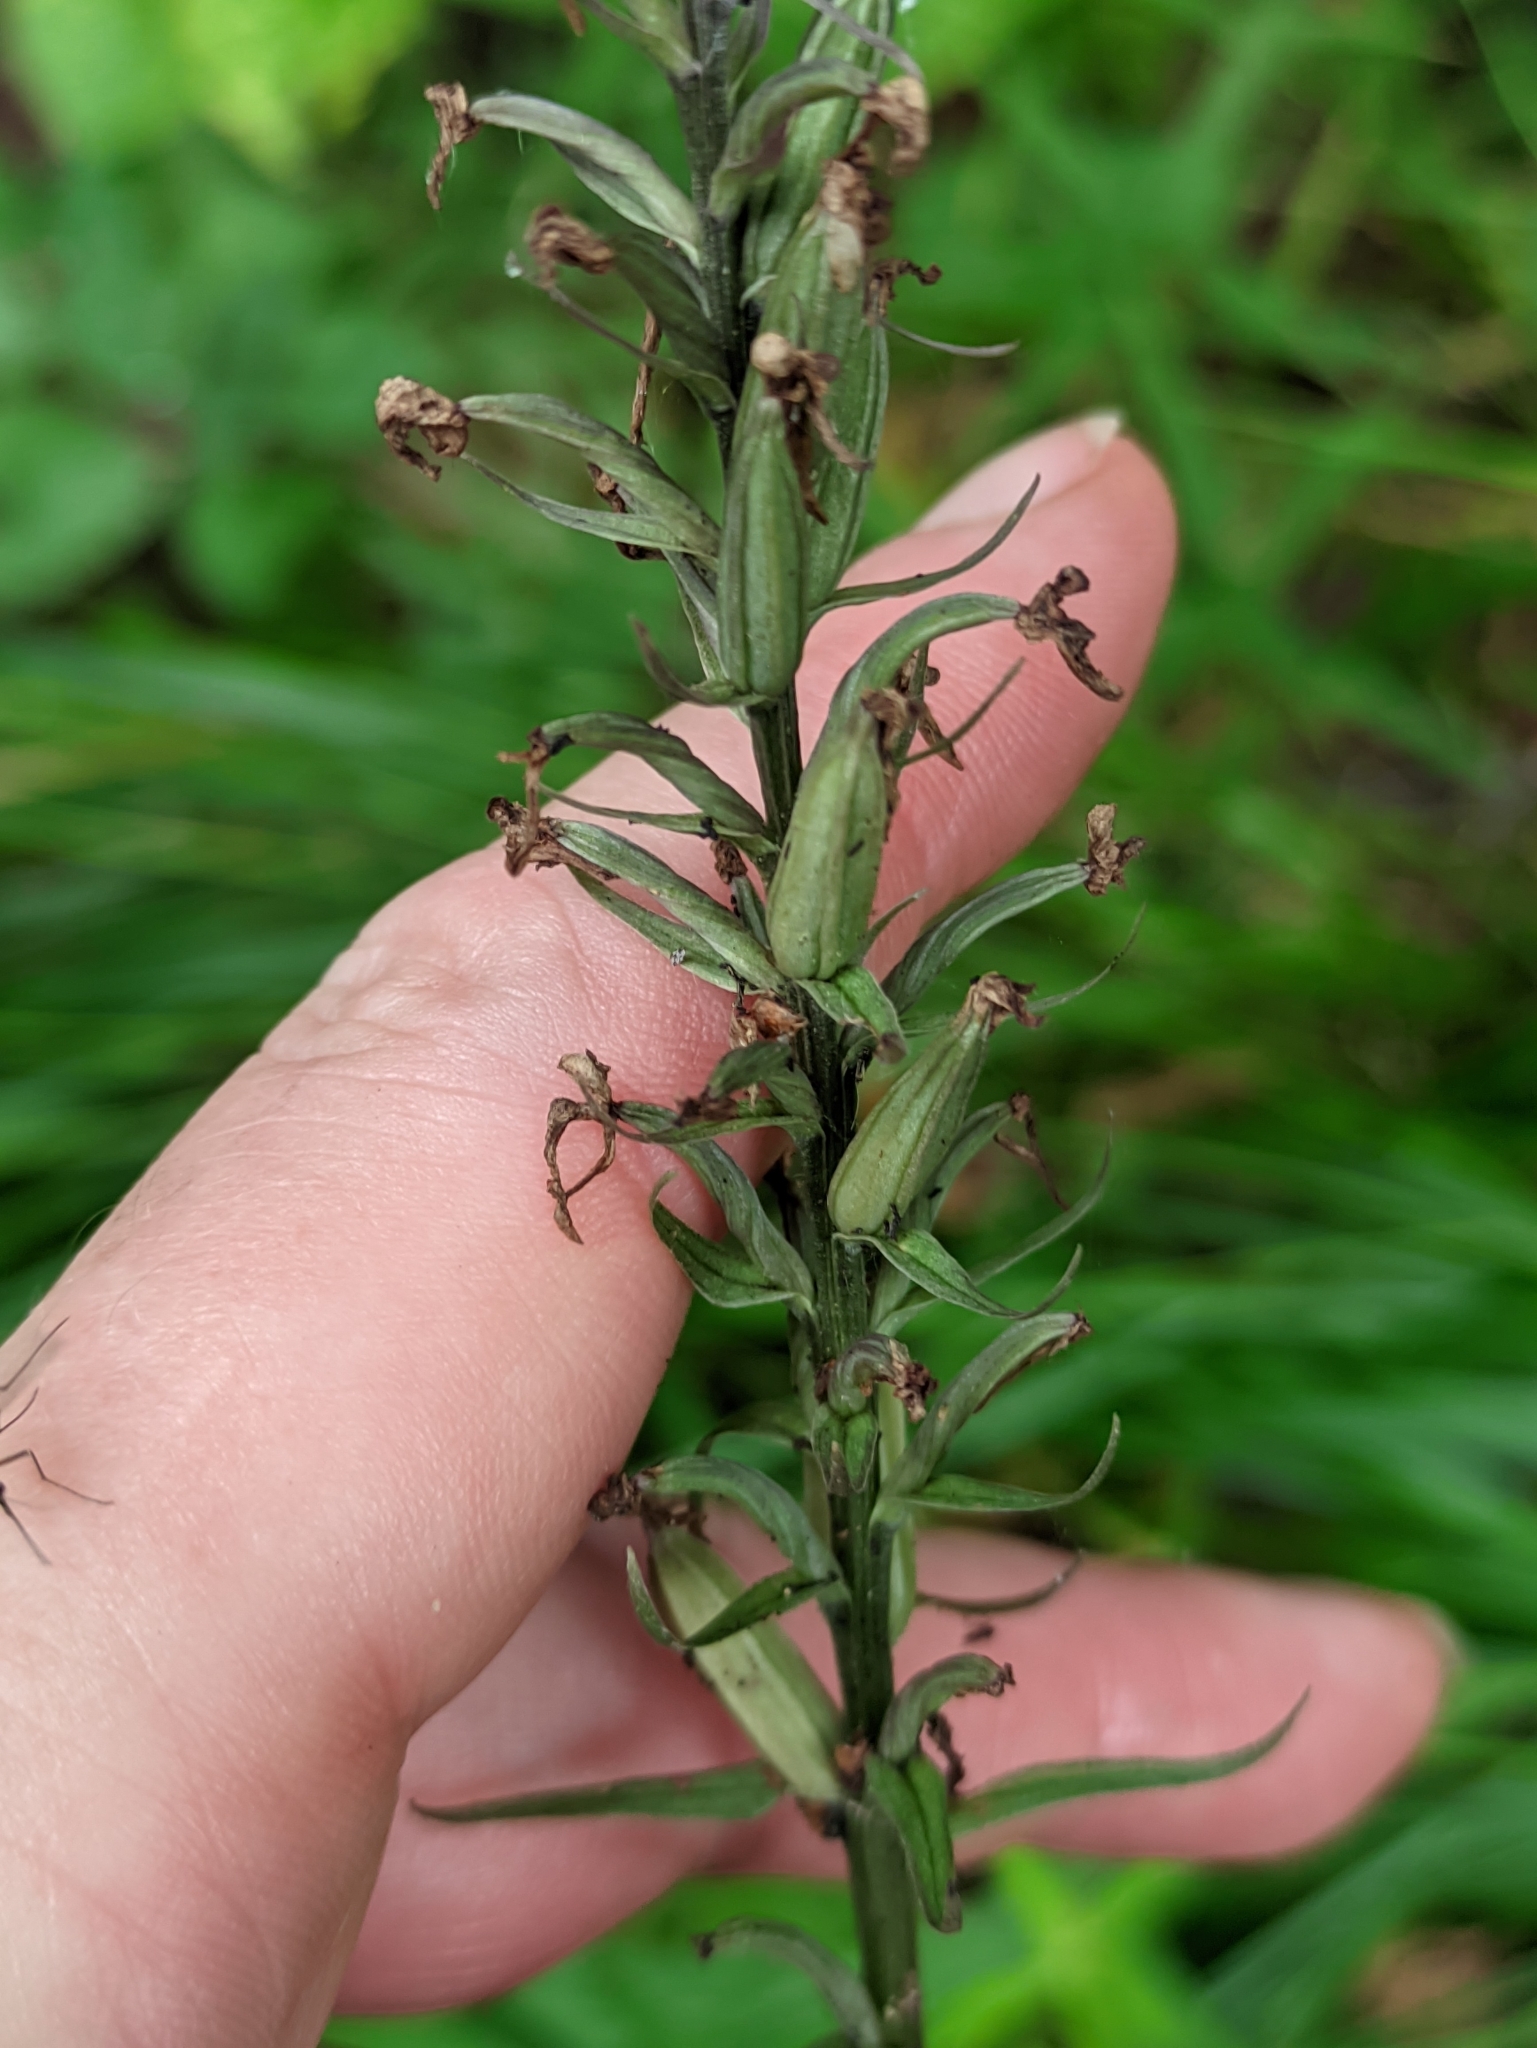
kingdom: Plantae
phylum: Tracheophyta
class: Liliopsida
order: Asparagales
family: Orchidaceae
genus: Dactylorhiza
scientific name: Dactylorhiza maculata
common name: Heath spotted-orchid
